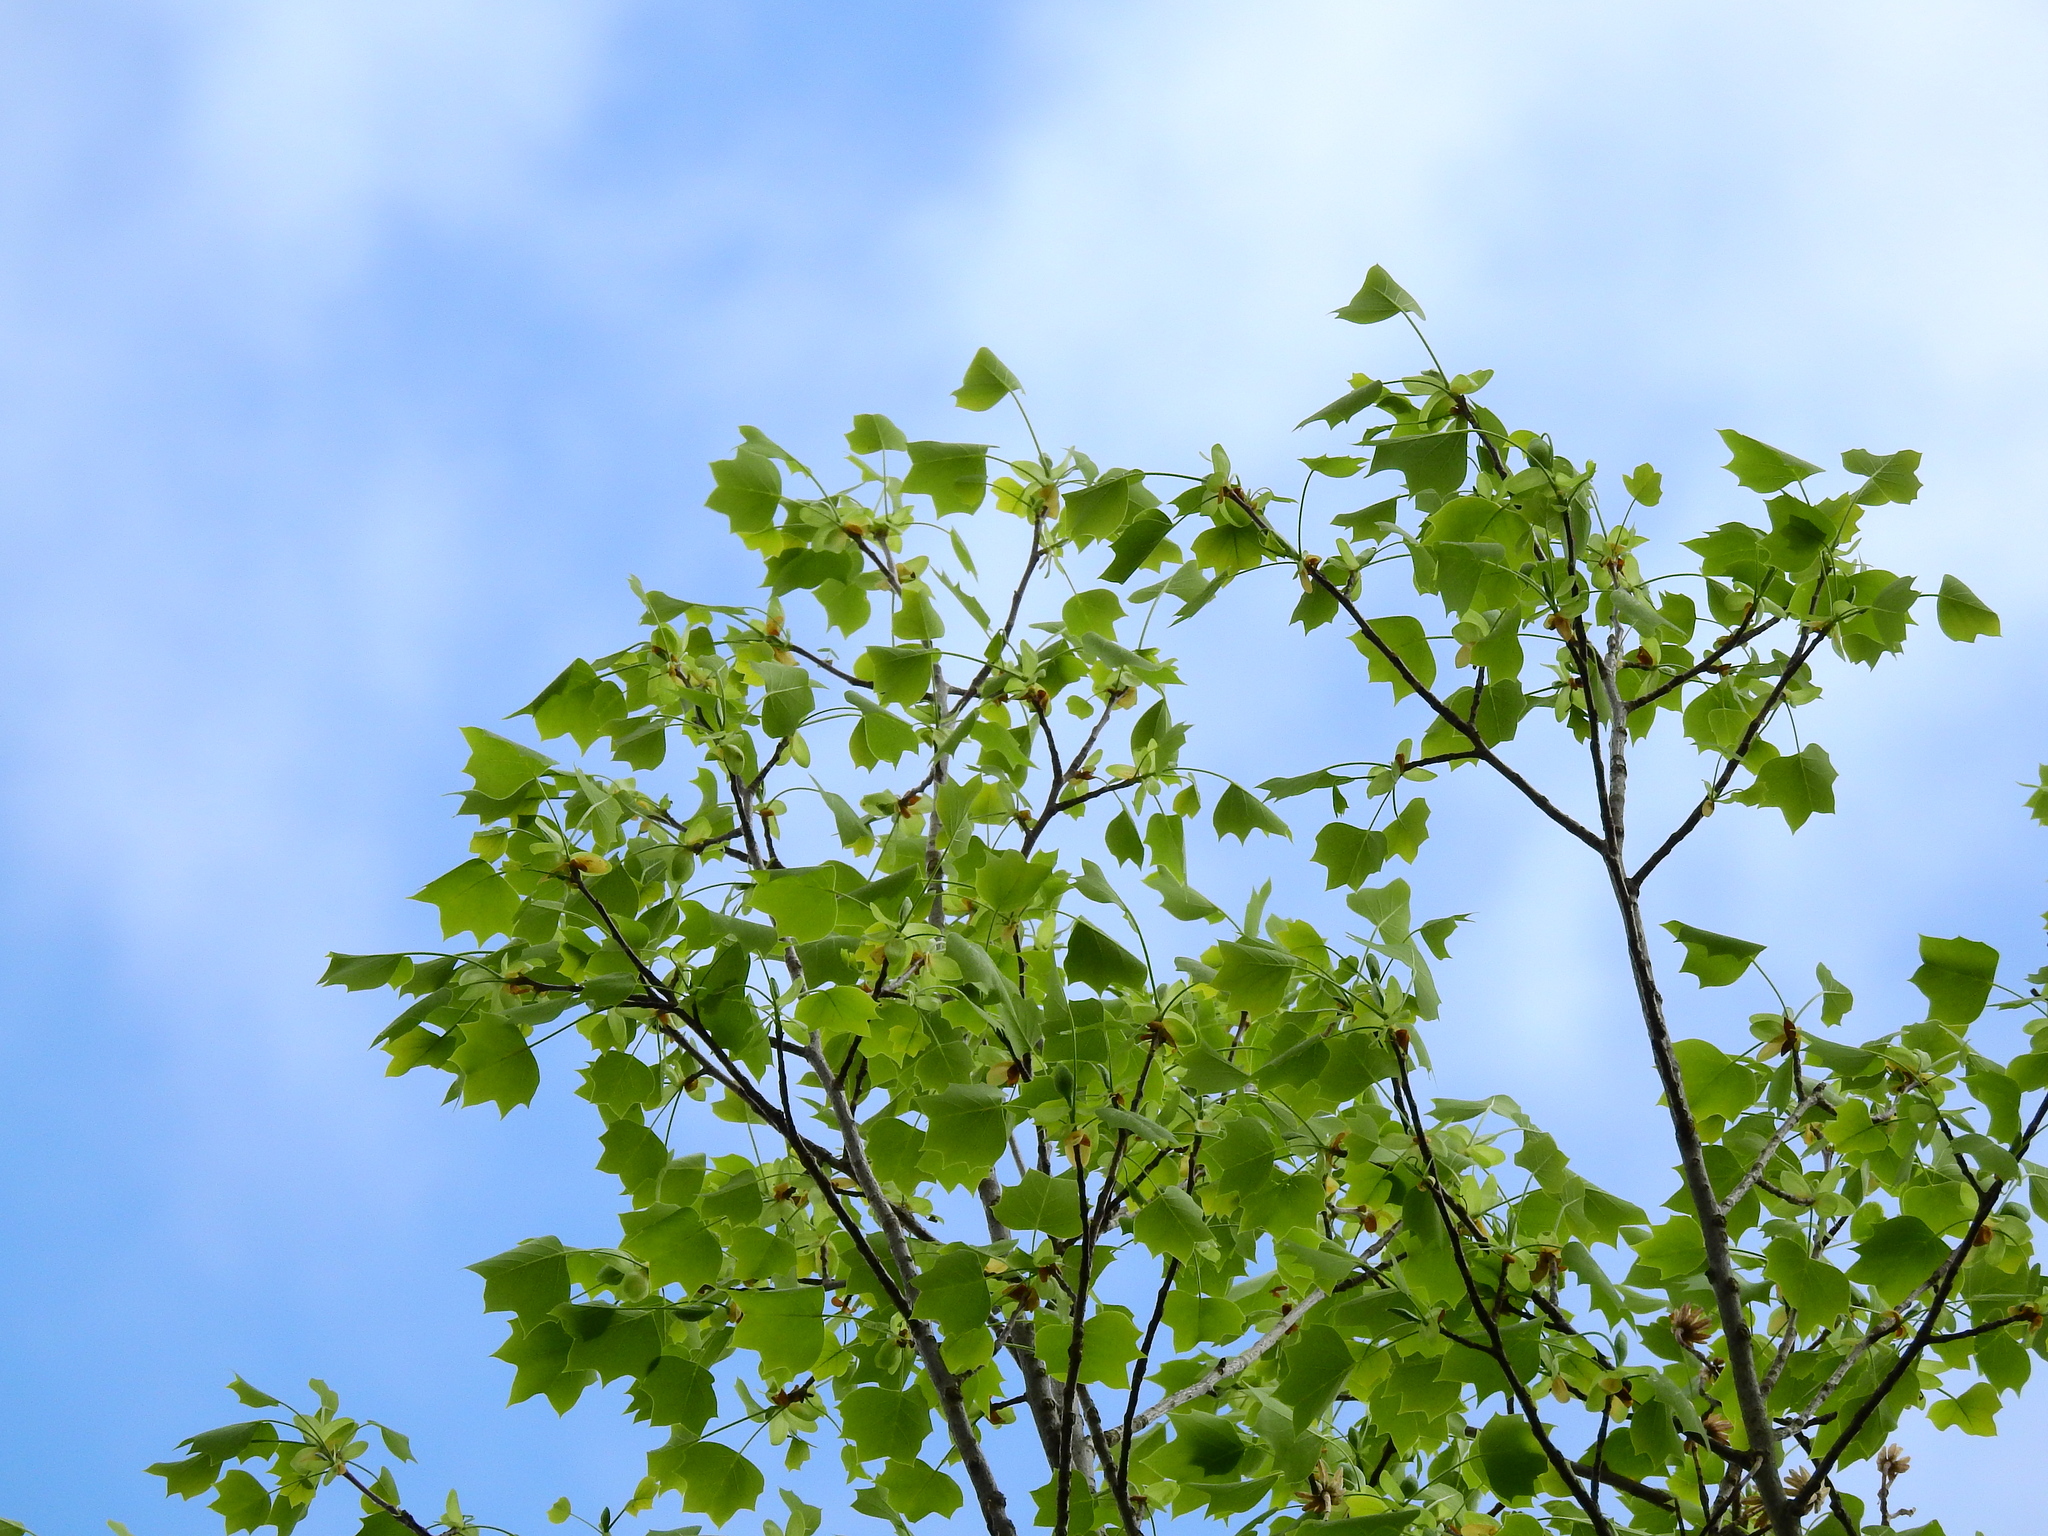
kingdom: Plantae
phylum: Tracheophyta
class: Magnoliopsida
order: Magnoliales
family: Magnoliaceae
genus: Liriodendron
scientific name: Liriodendron tulipifera
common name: Tulip tree
